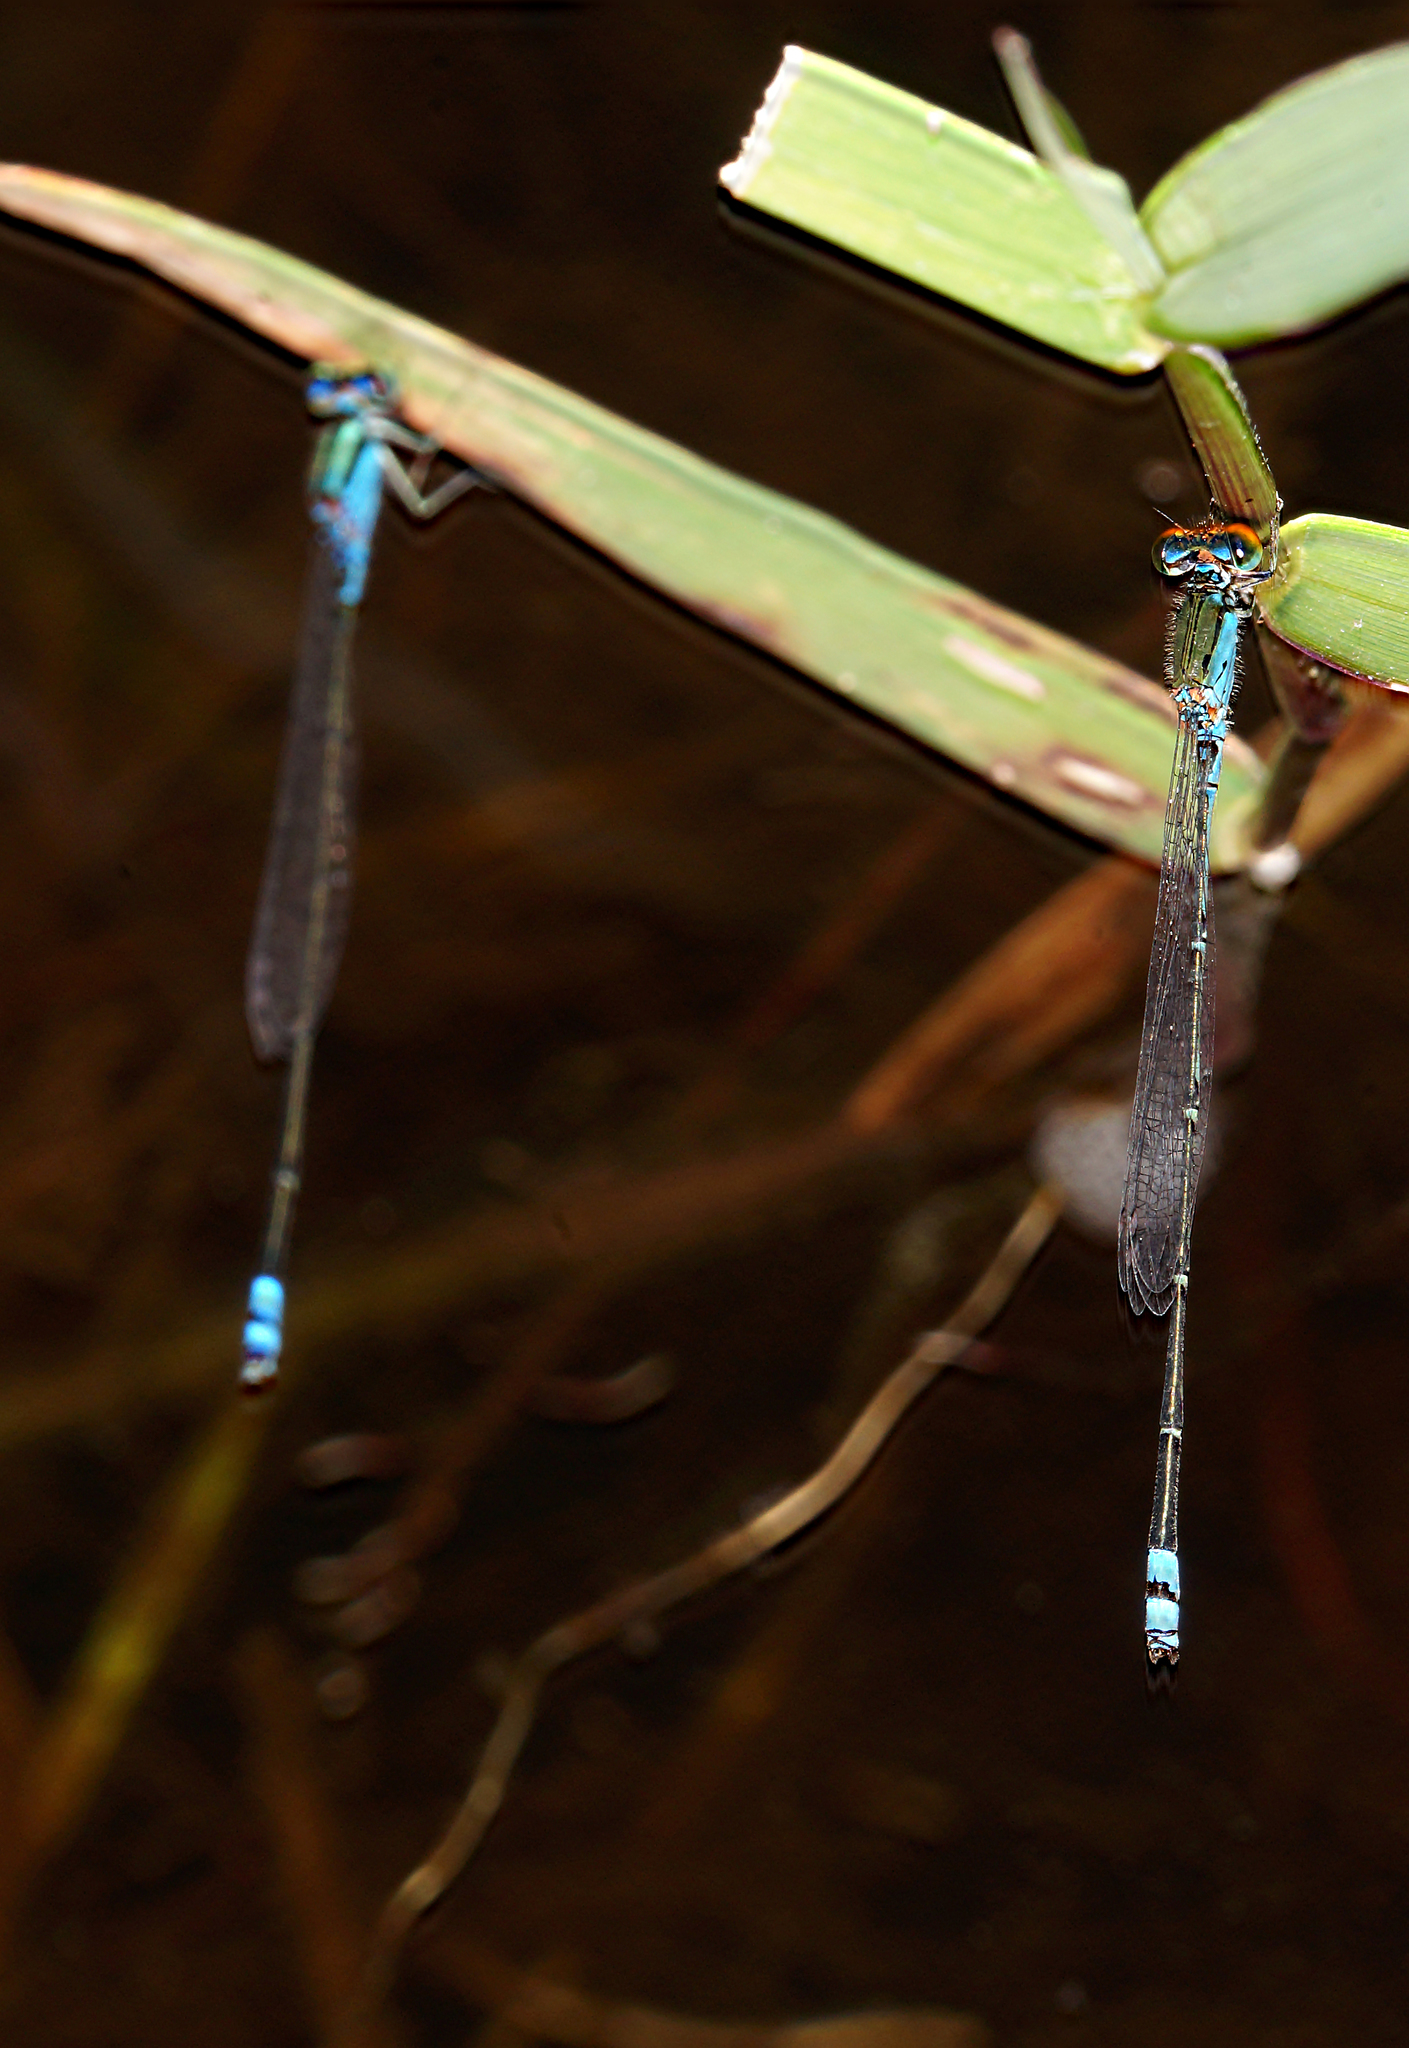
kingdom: Animalia
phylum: Arthropoda
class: Insecta
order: Odonata
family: Coenagrionidae
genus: Pseudagrion
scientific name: Pseudagrion rubriceps
